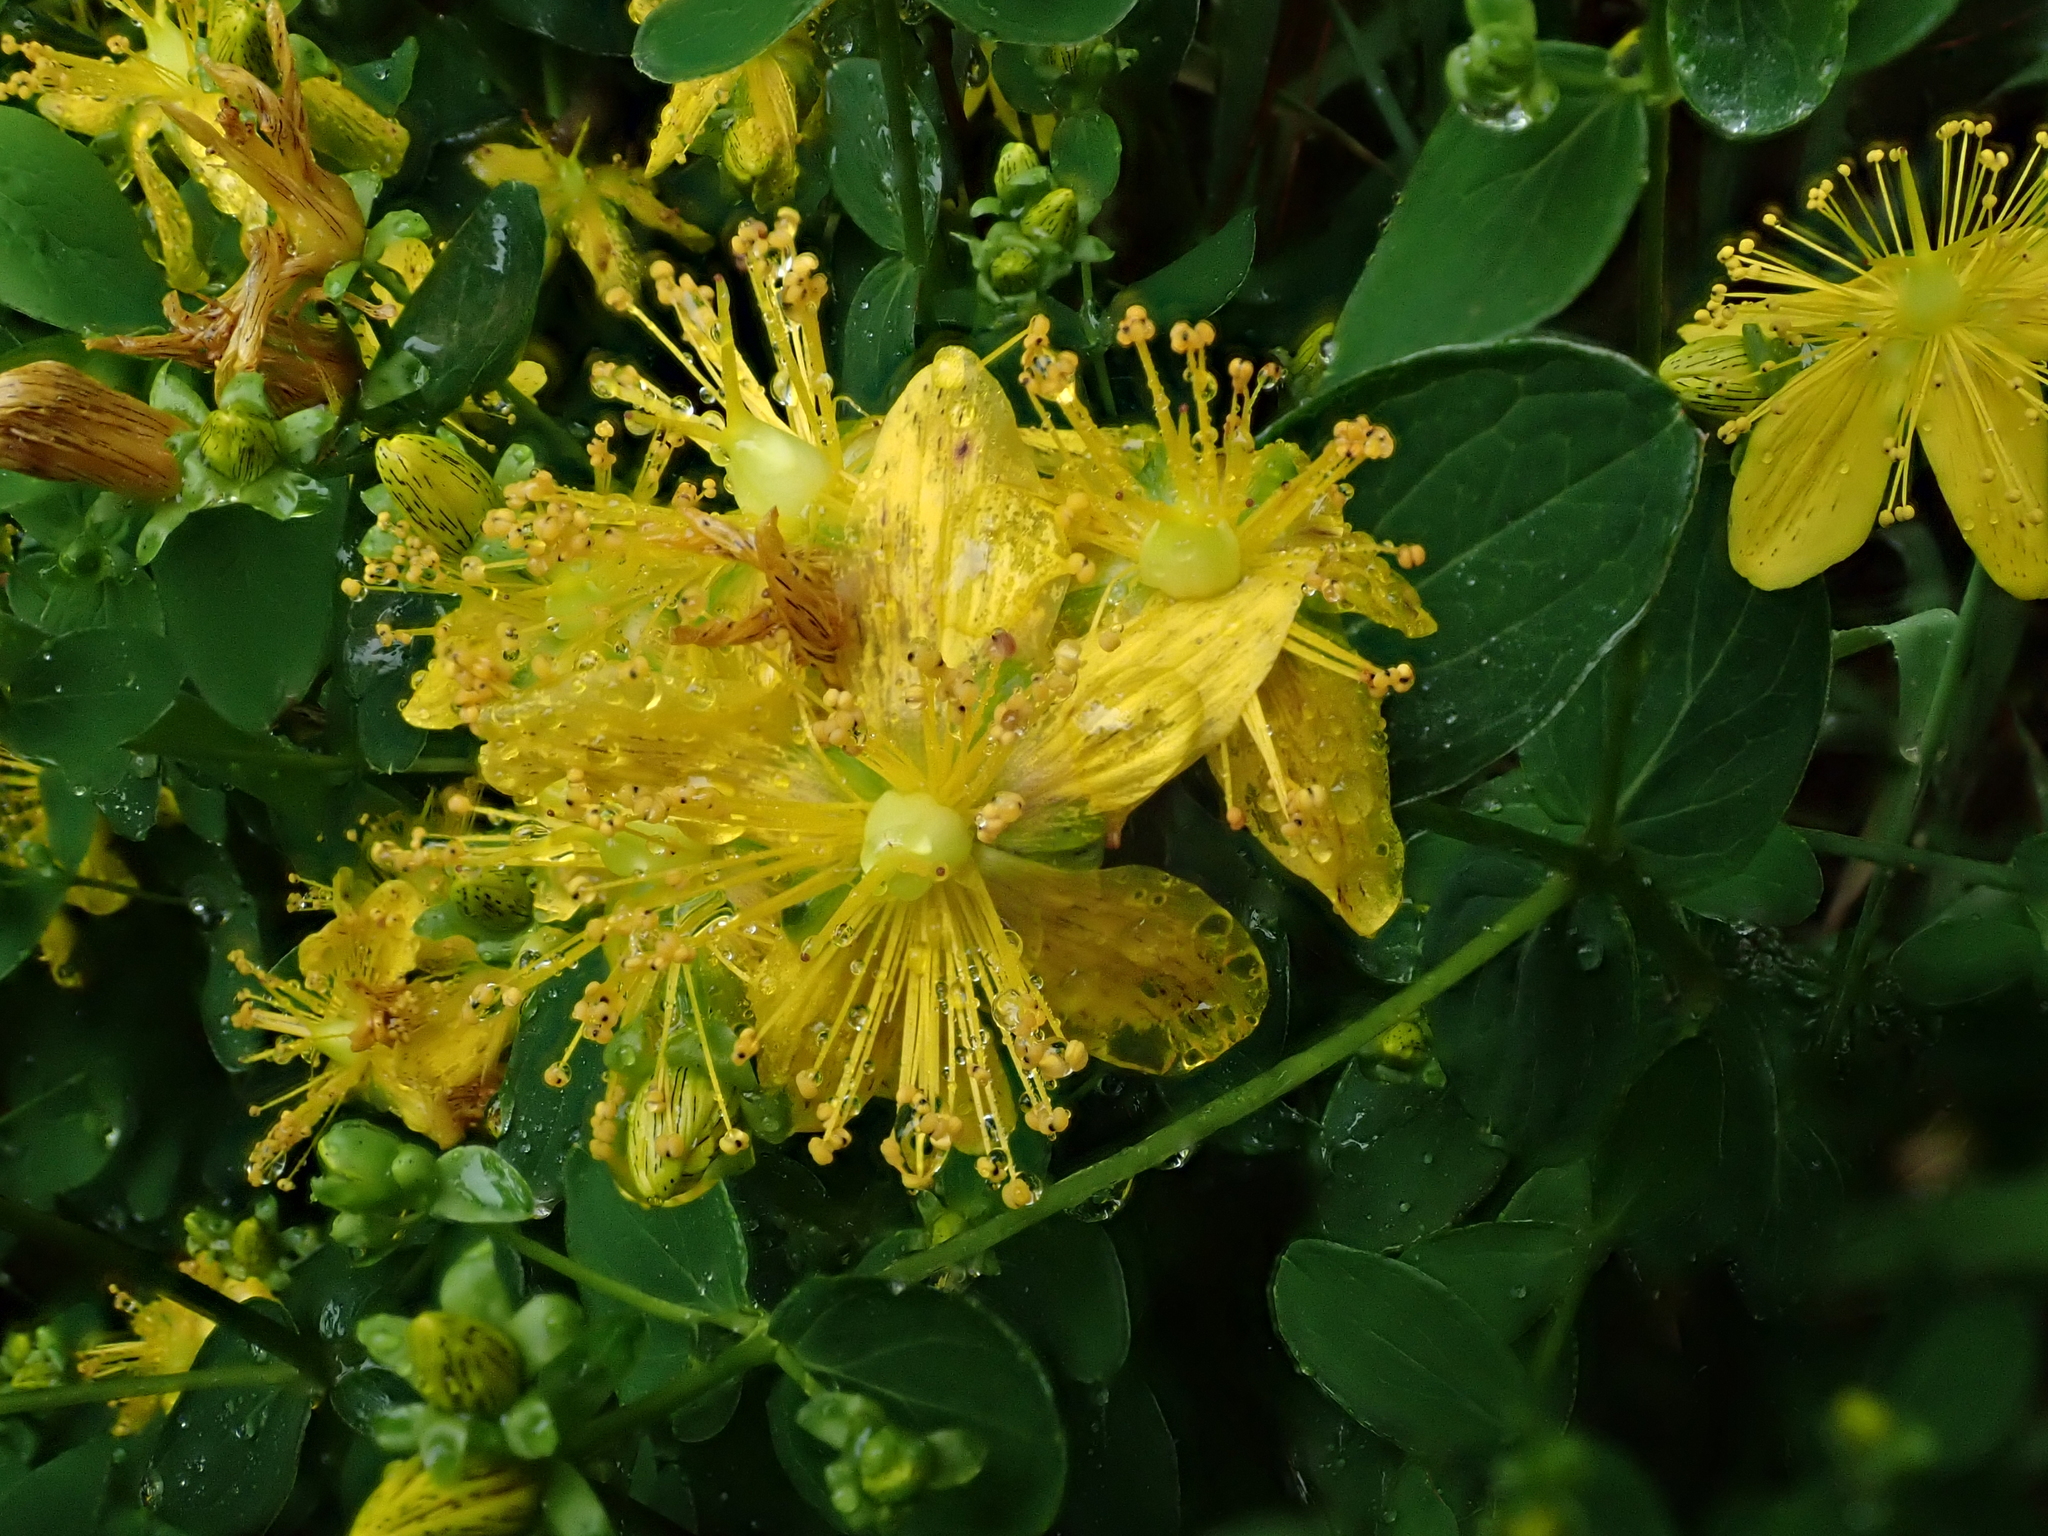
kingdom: Plantae
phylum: Tracheophyta
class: Magnoliopsida
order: Malpighiales
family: Hypericaceae
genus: Hypericum
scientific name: Hypericum perforatum
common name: Common st. johnswort
